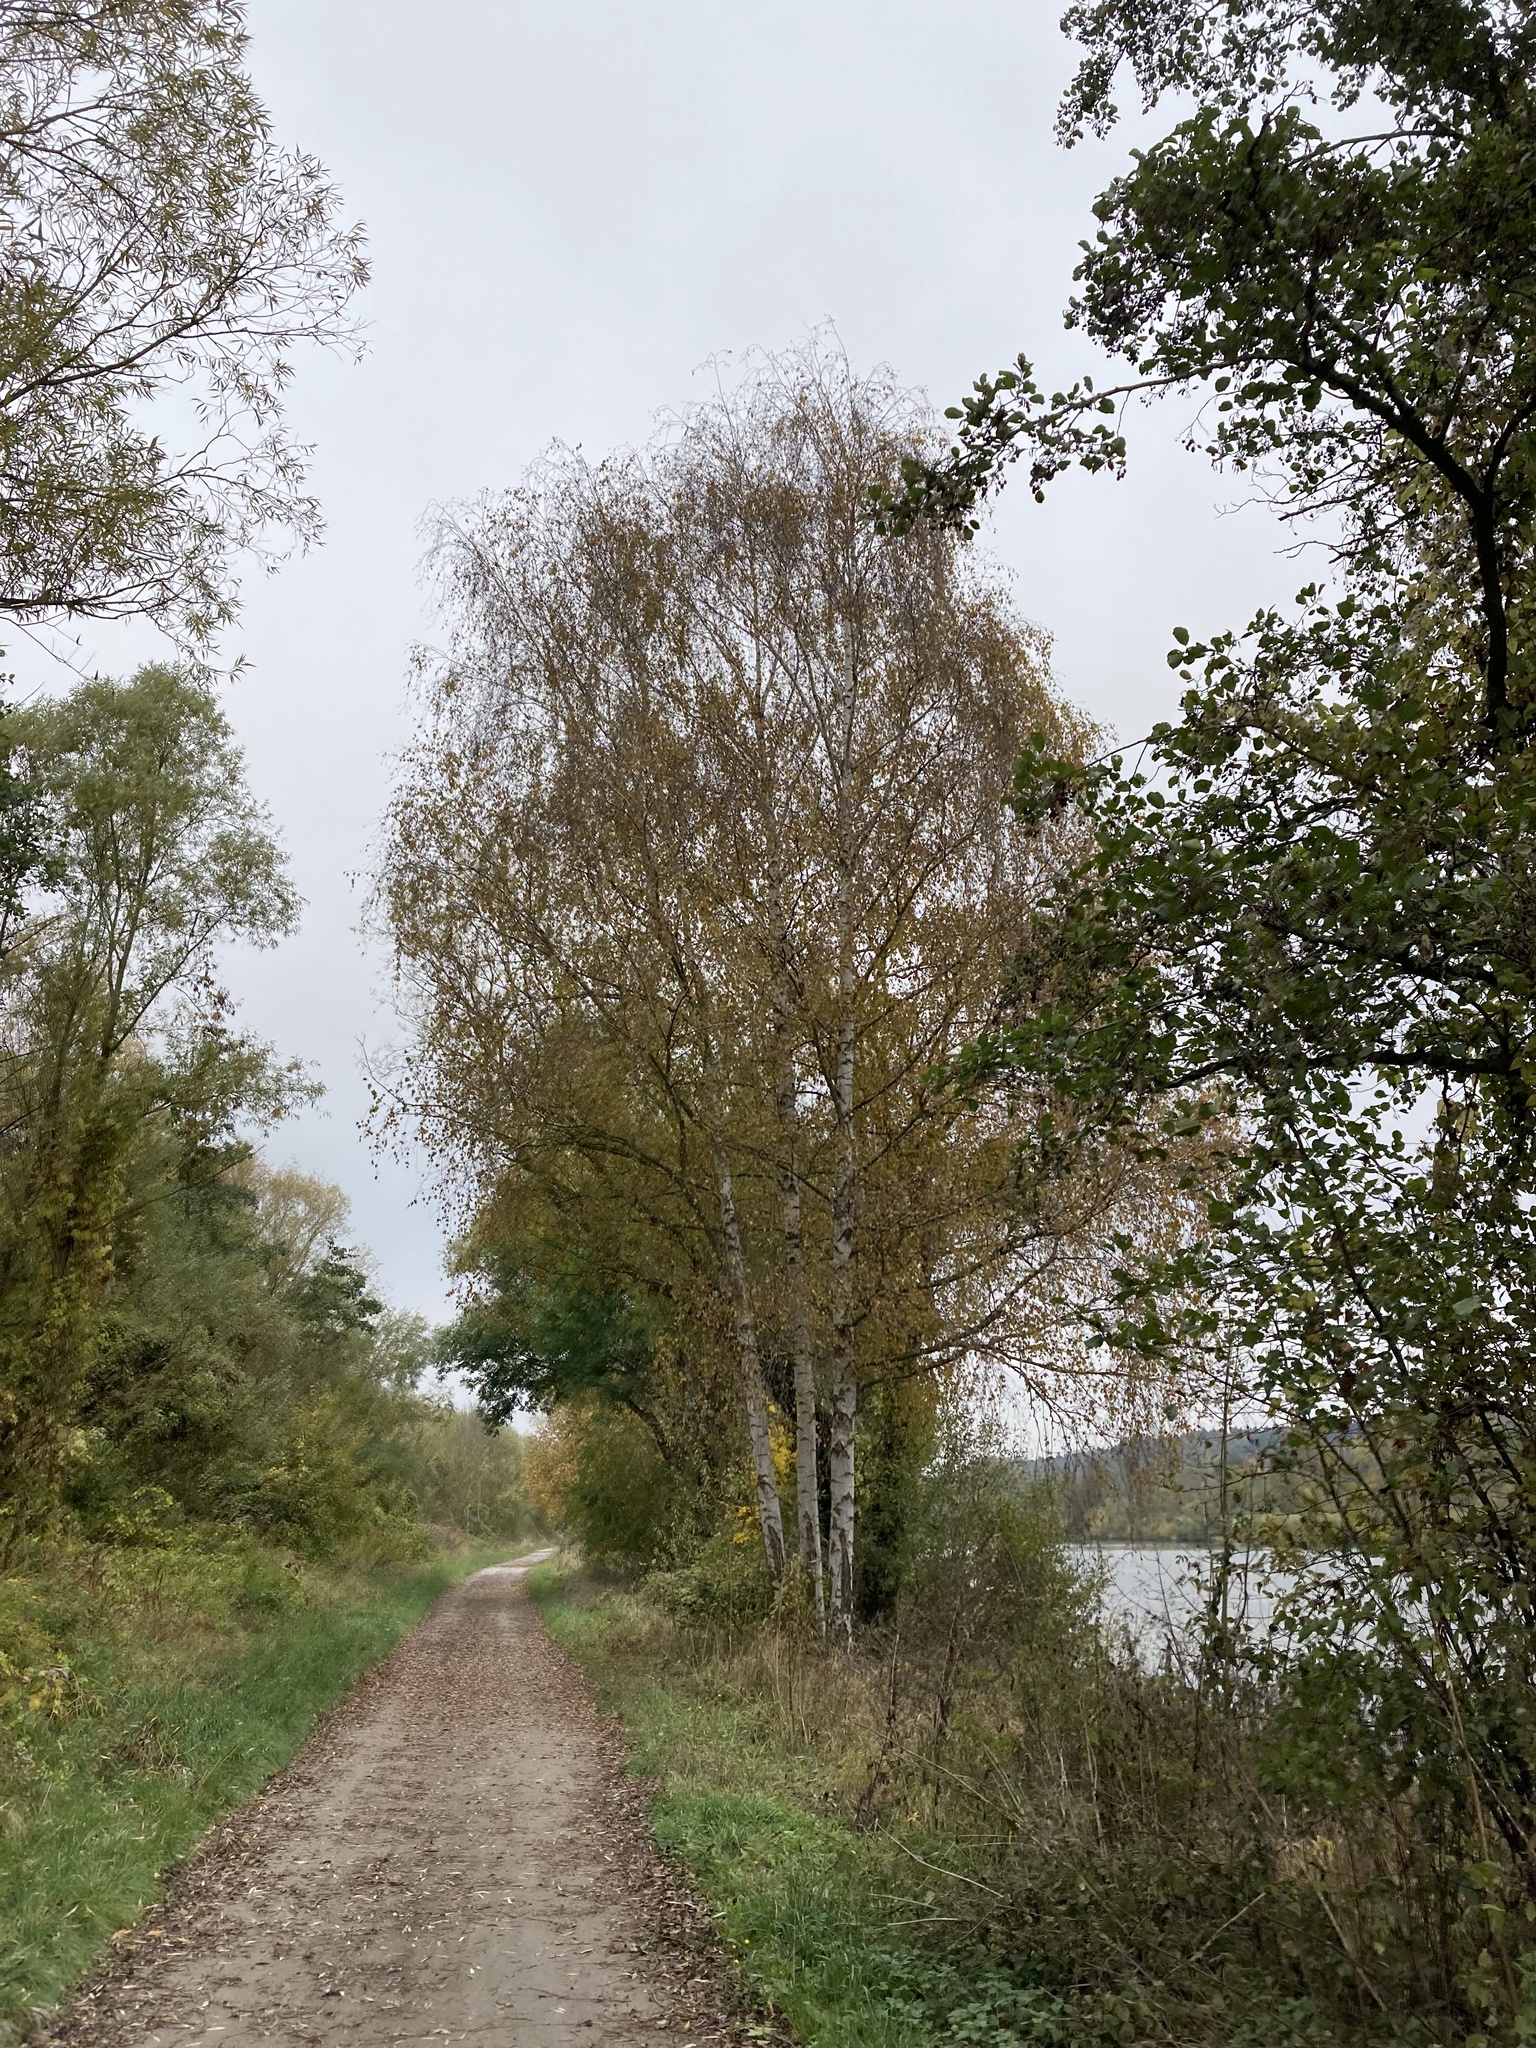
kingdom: Plantae
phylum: Tracheophyta
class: Magnoliopsida
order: Fagales
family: Betulaceae
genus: Betula
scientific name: Betula pendula
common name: Silver birch
